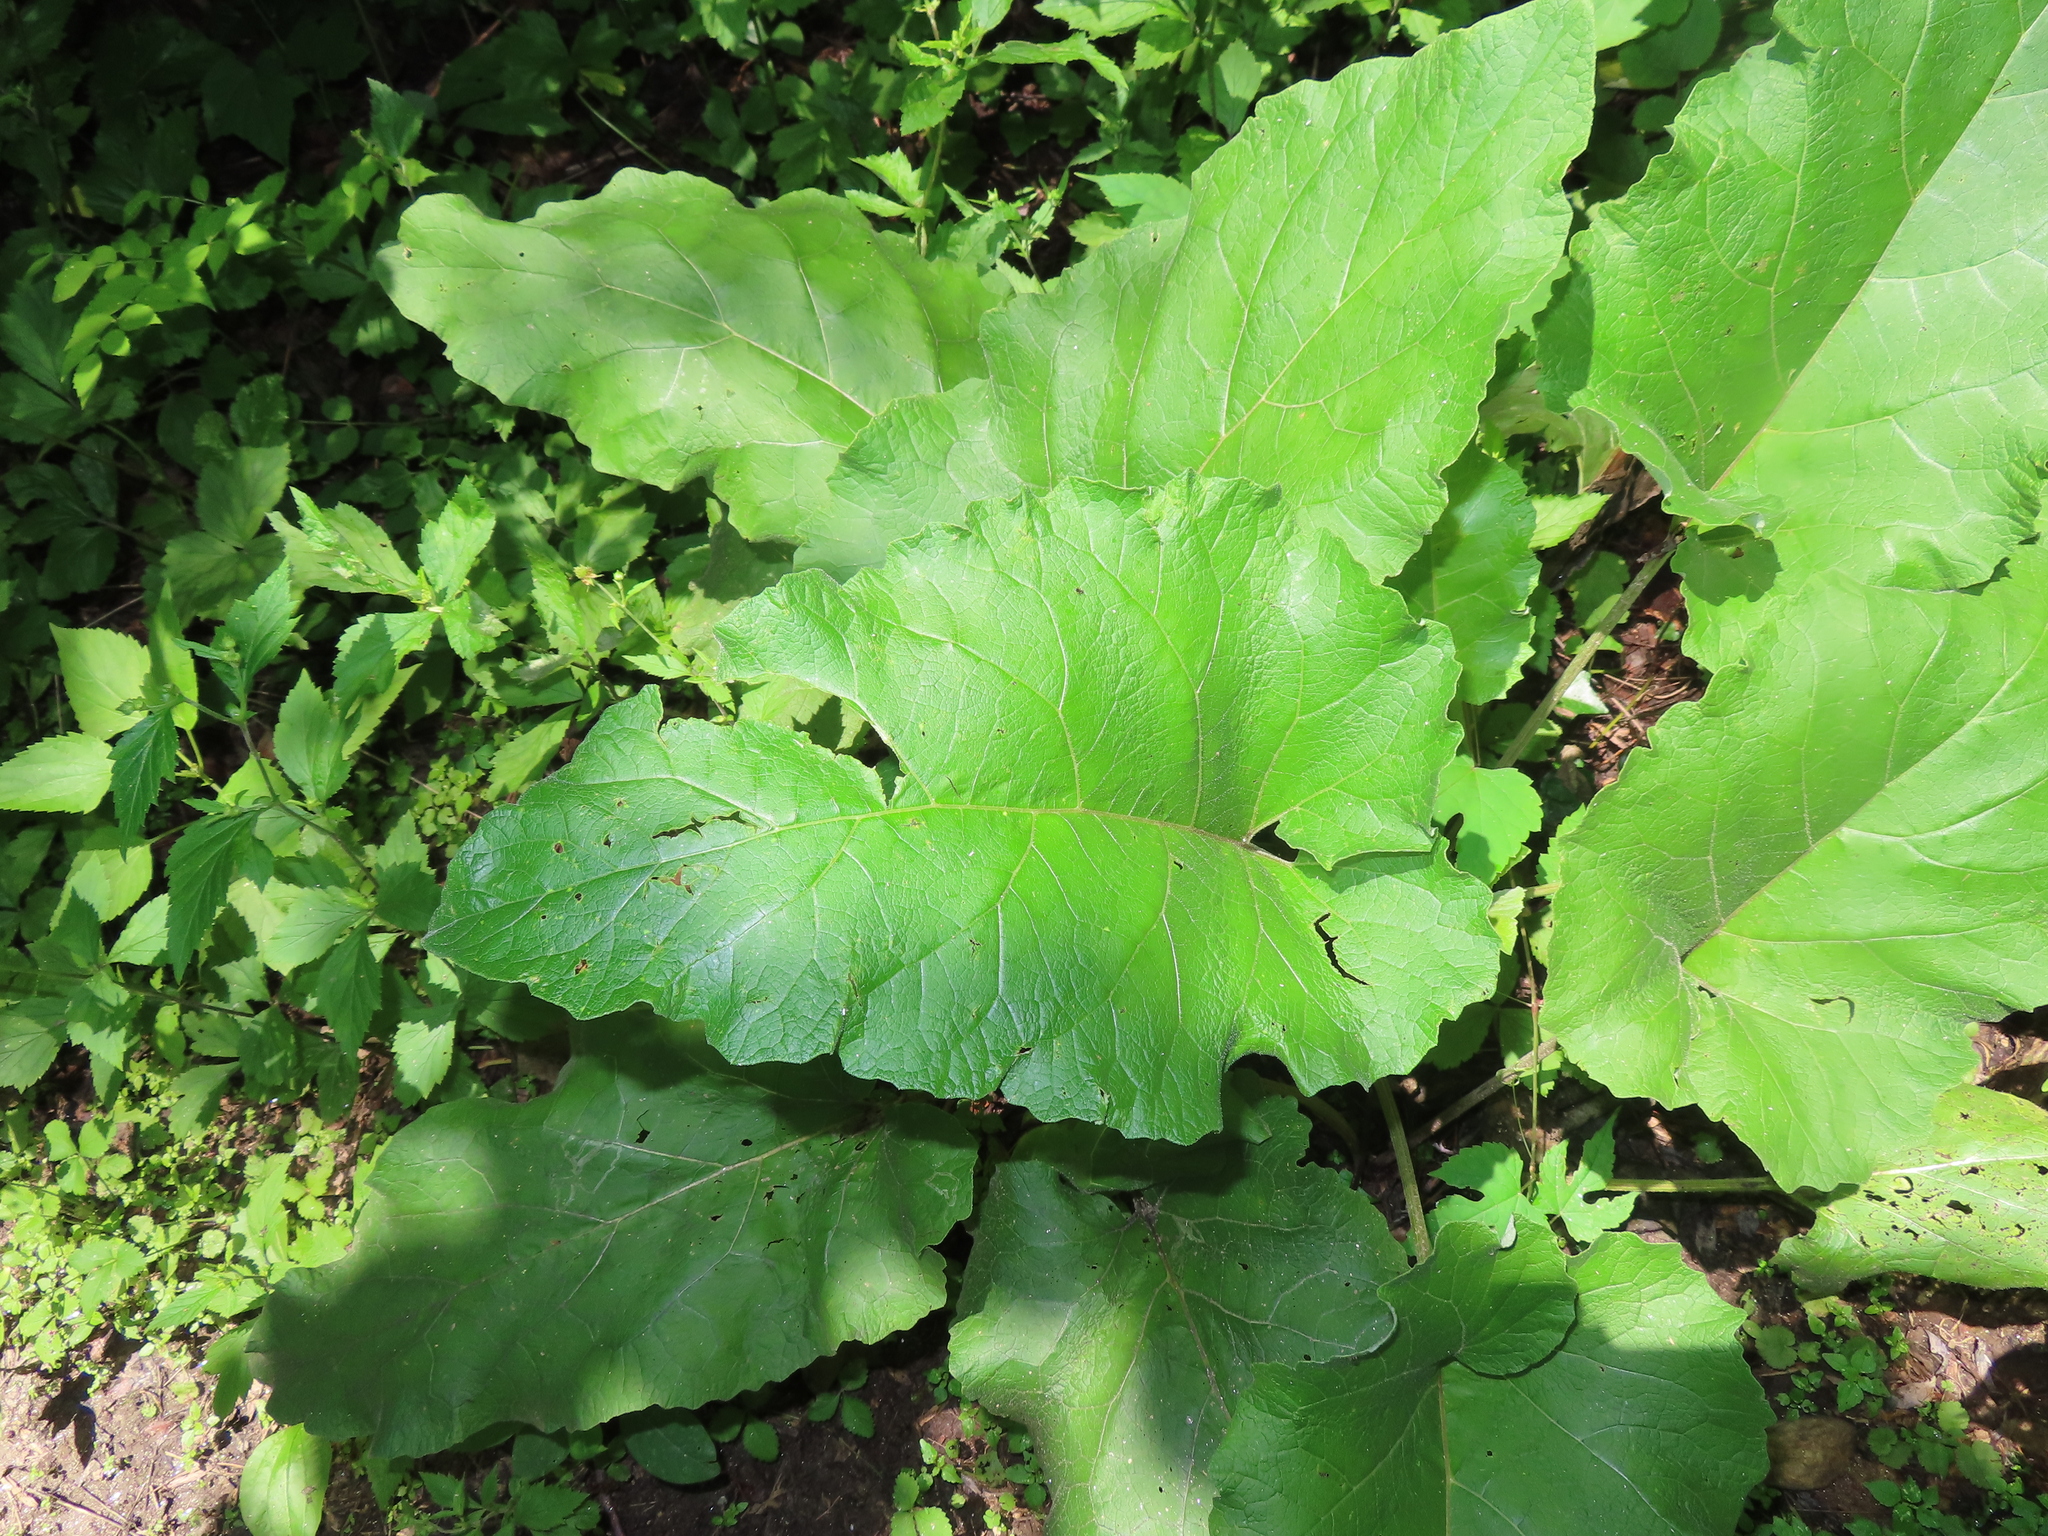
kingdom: Plantae
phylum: Tracheophyta
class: Magnoliopsida
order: Asterales
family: Asteraceae
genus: Arctium
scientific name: Arctium
